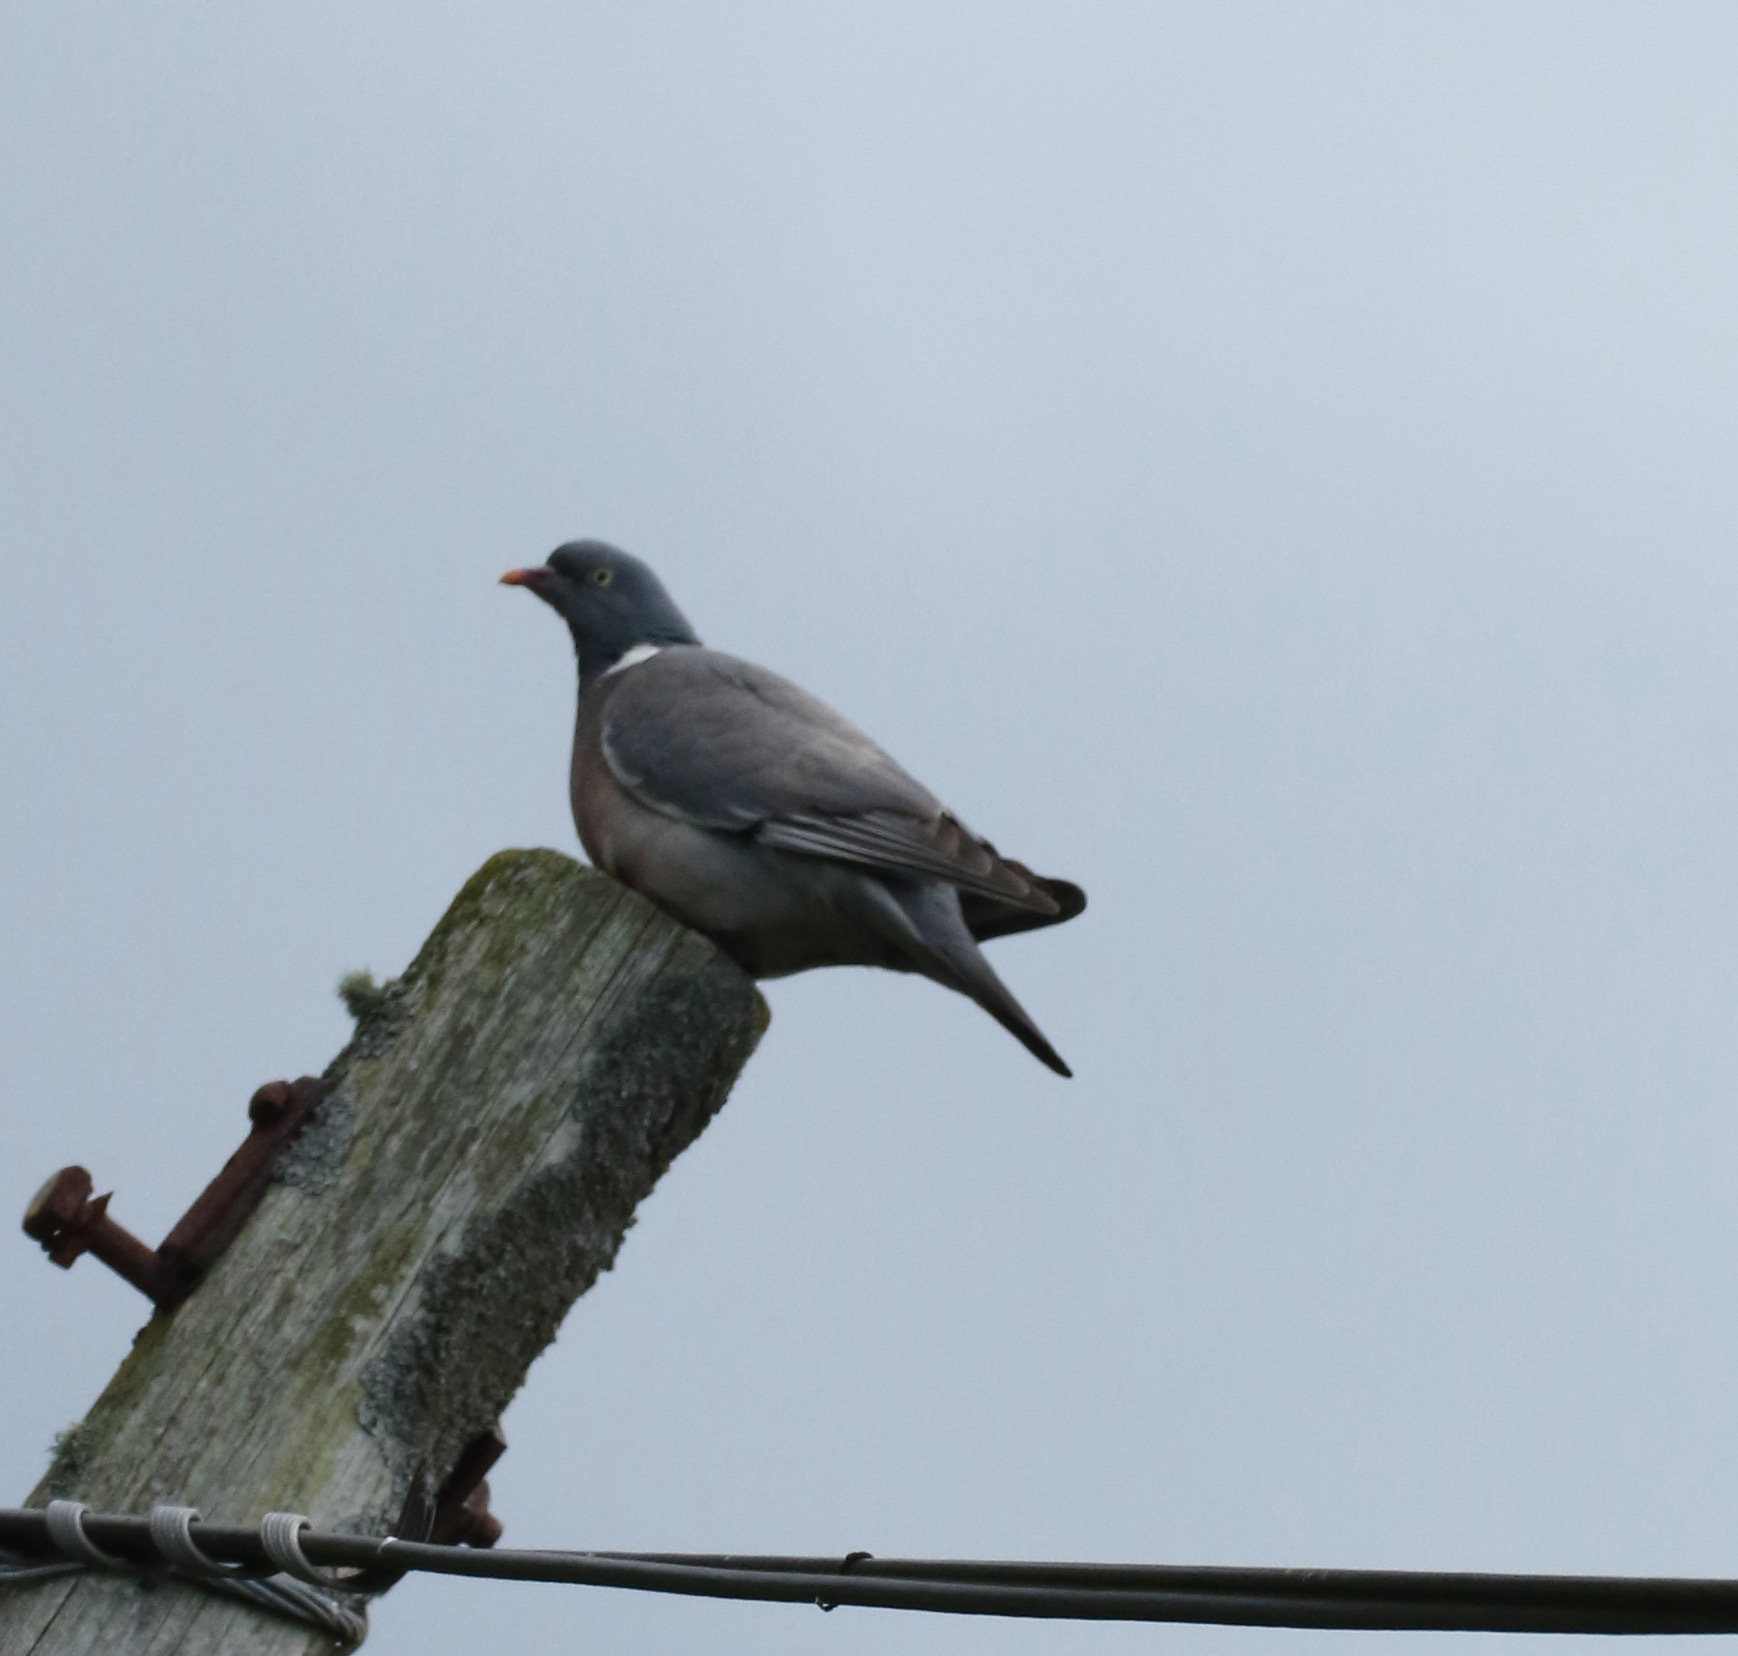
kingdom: Animalia
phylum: Chordata
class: Aves
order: Columbiformes
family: Columbidae
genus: Columba
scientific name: Columba palumbus
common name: Common wood pigeon
